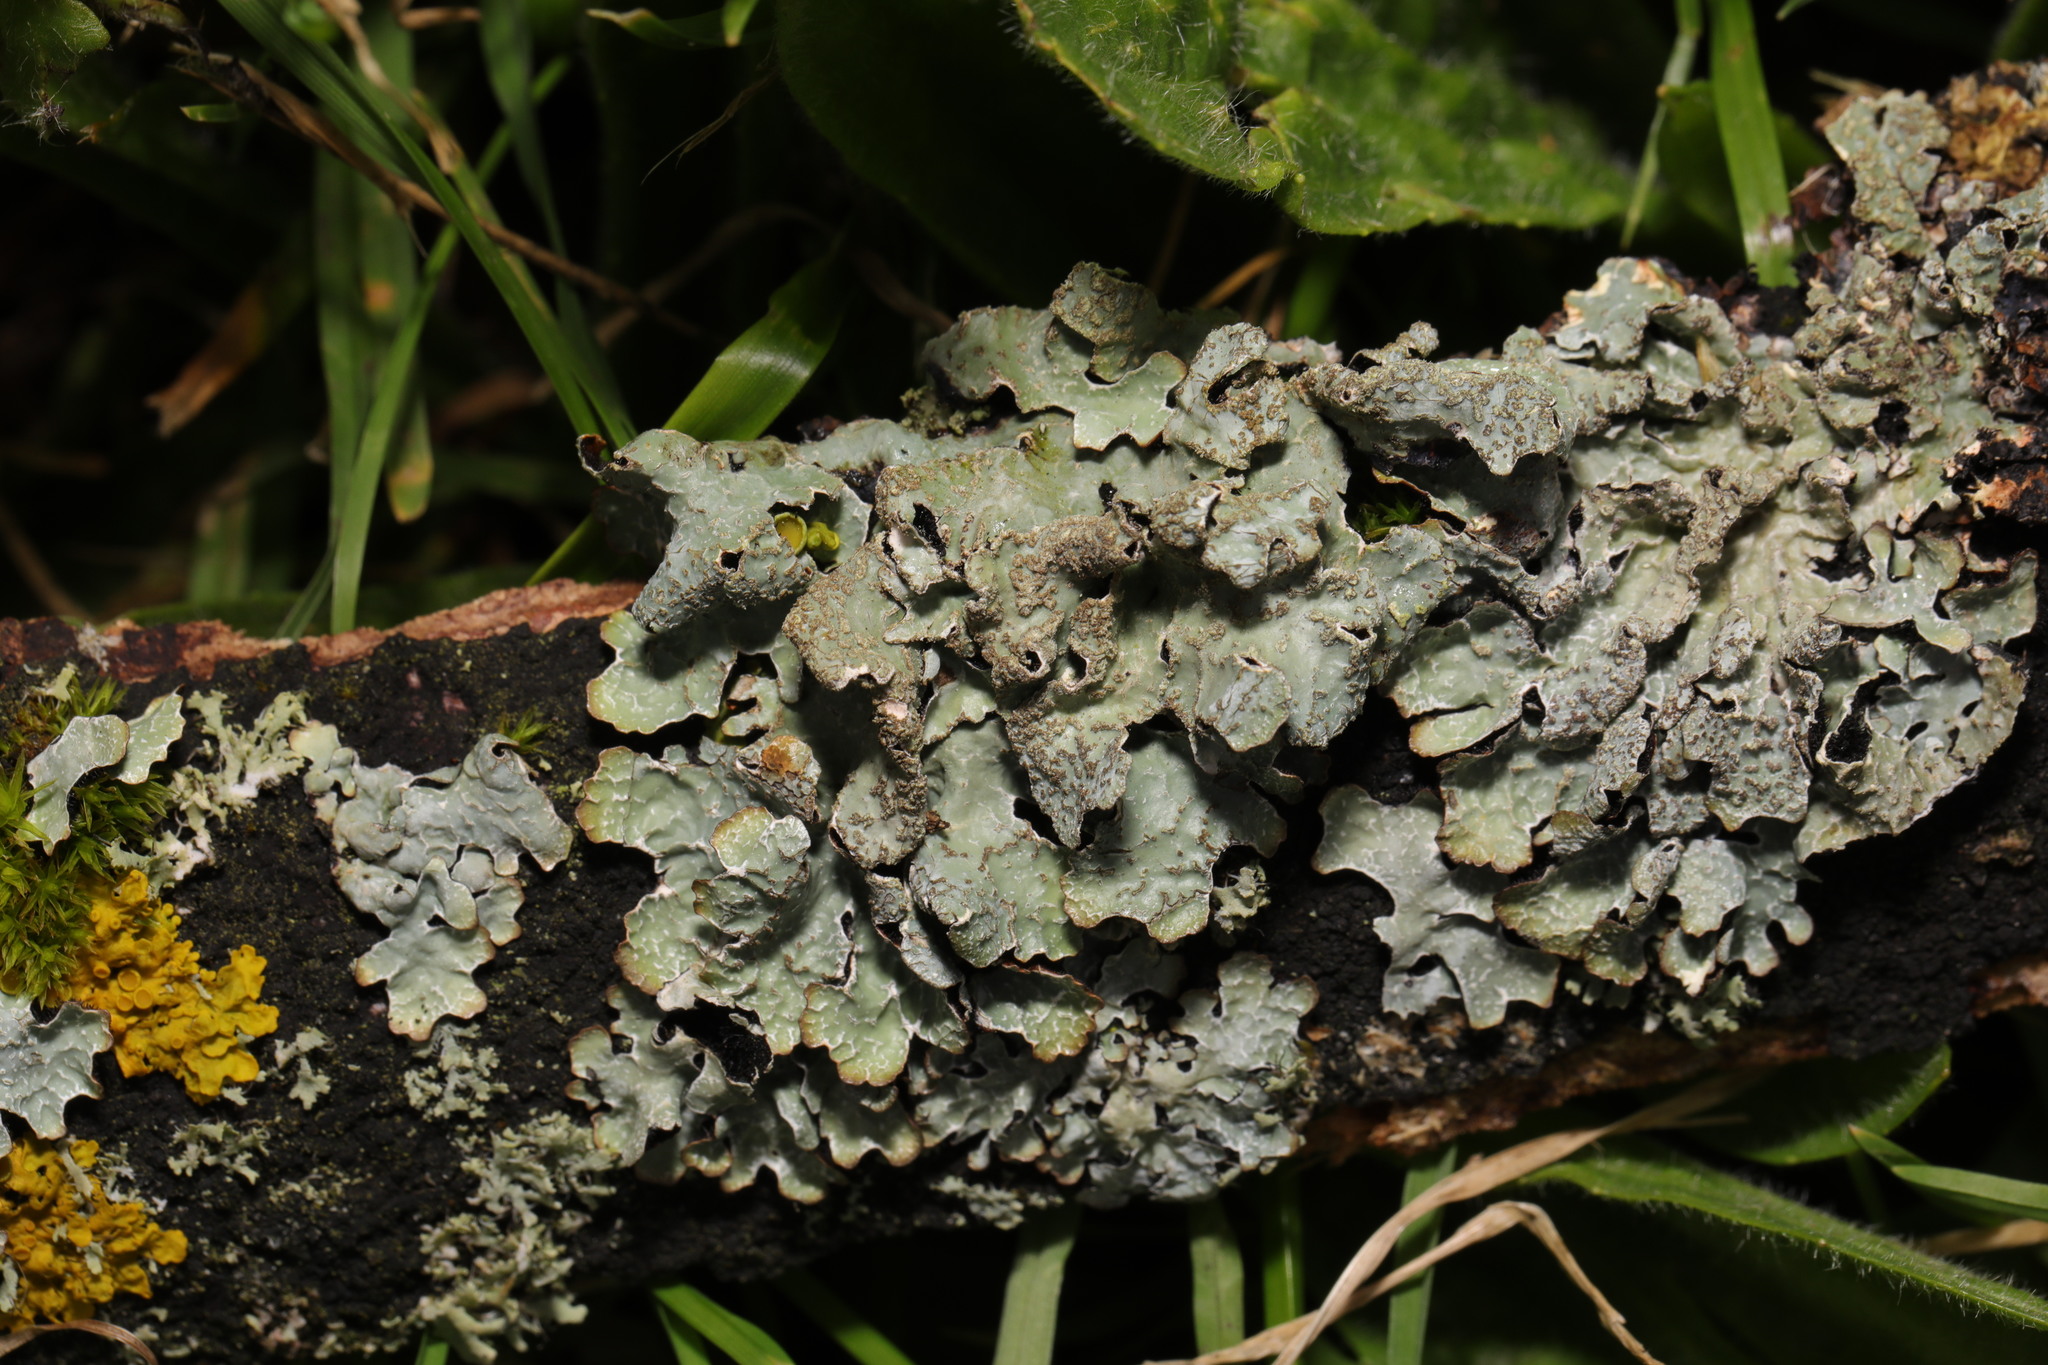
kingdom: Fungi
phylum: Ascomycota
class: Lecanoromycetes
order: Lecanorales
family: Parmeliaceae
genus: Parmelia
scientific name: Parmelia sulcata
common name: Netted shield lichen
